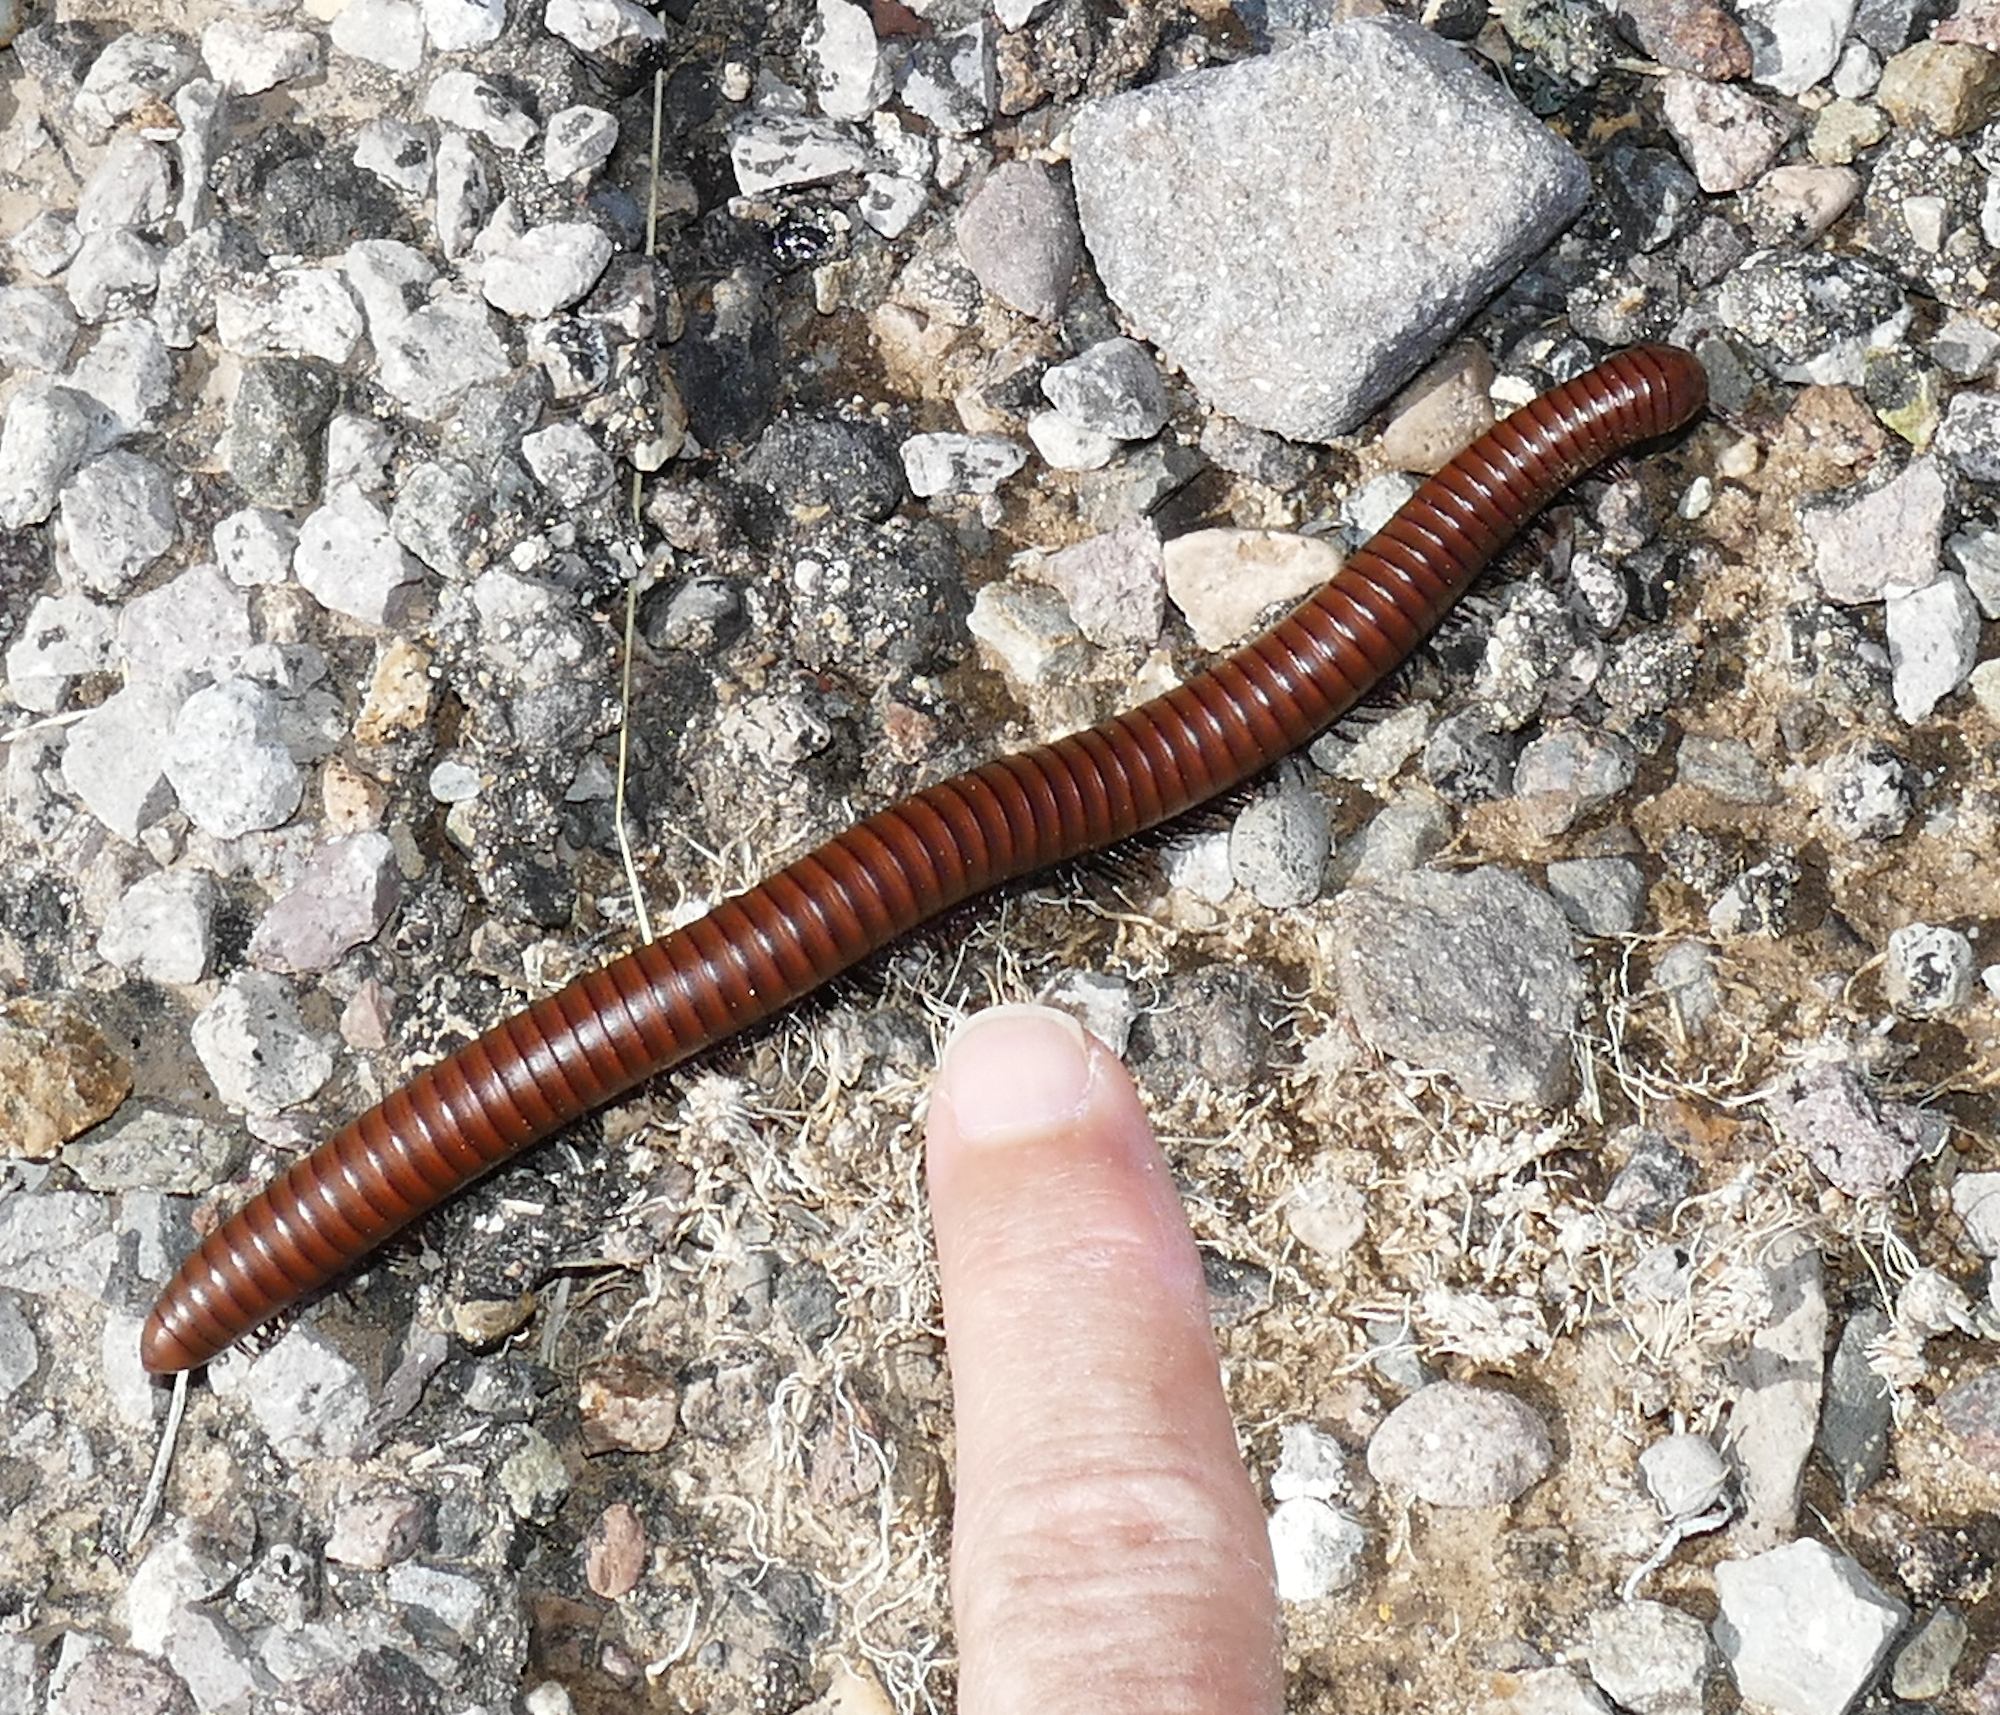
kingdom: Animalia
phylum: Arthropoda
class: Diplopoda
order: Spirostreptida
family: Spirostreptidae
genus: Orthoporus
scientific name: Orthoporus ornatus
